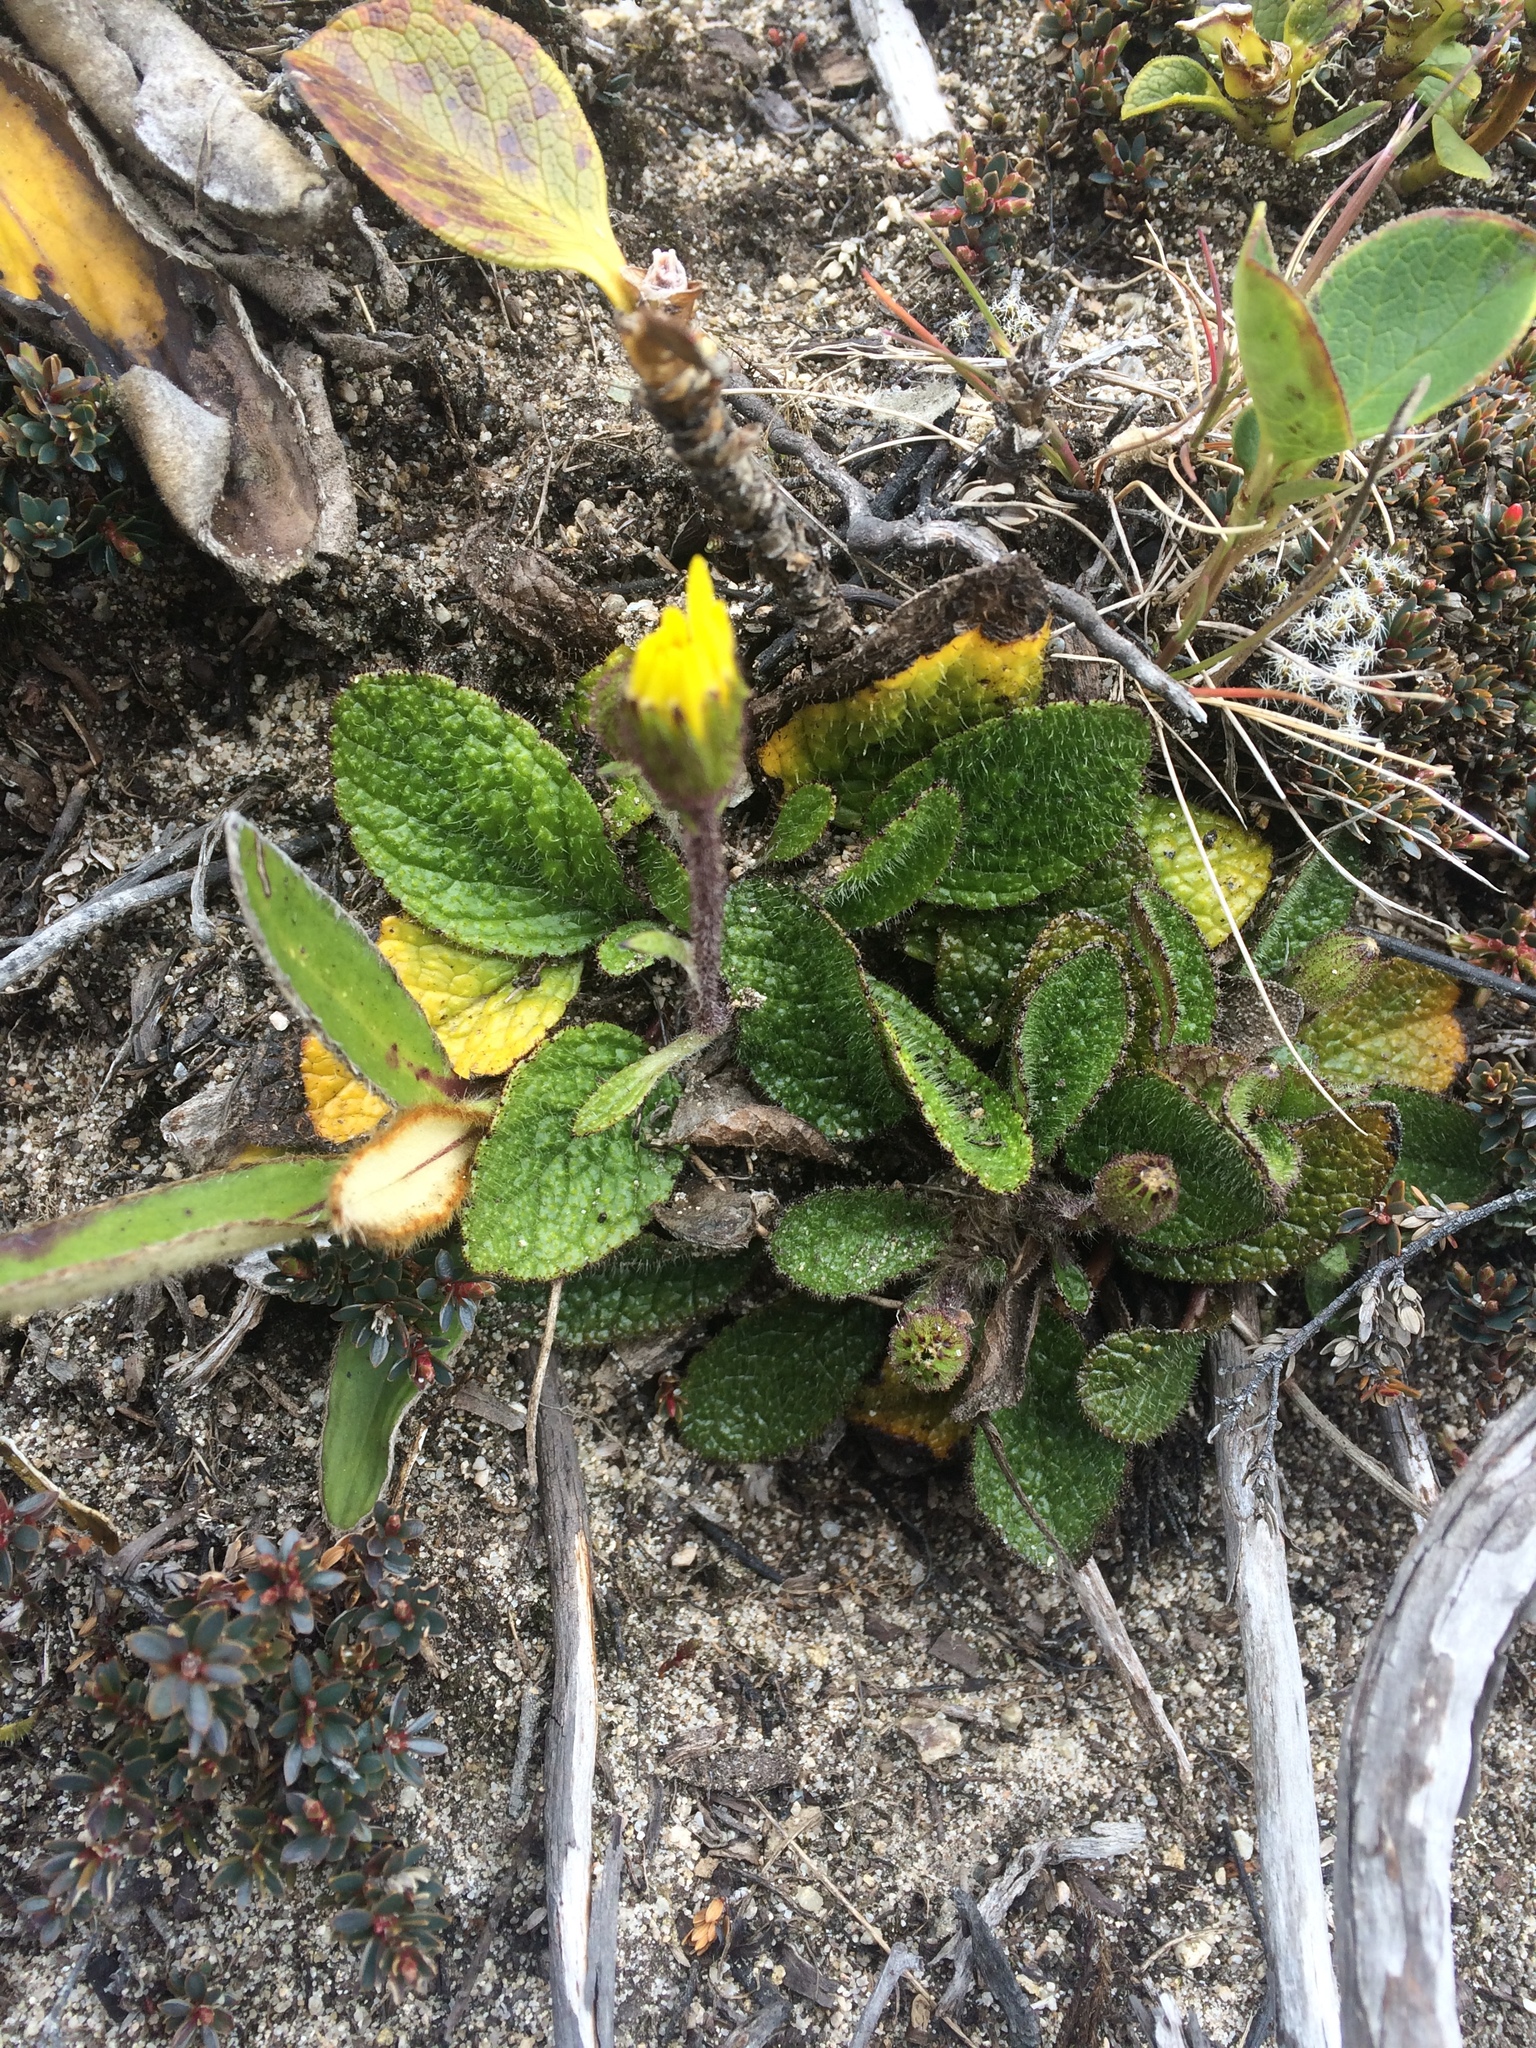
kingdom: Plantae
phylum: Tracheophyta
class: Magnoliopsida
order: Asterales
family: Asteraceae
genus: Brachyglottis
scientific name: Brachyglottis bellidioides
